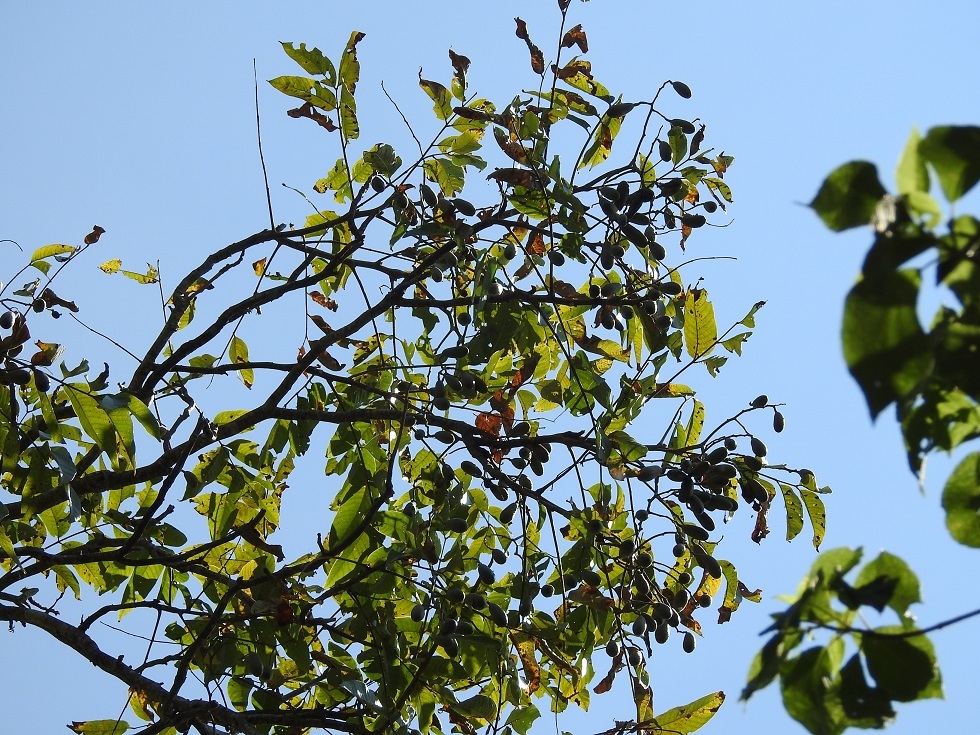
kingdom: Plantae
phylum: Tracheophyta
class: Magnoliopsida
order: Sapindales
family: Meliaceae
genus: Cedrela
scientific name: Cedrela odorata
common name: Red cedar
